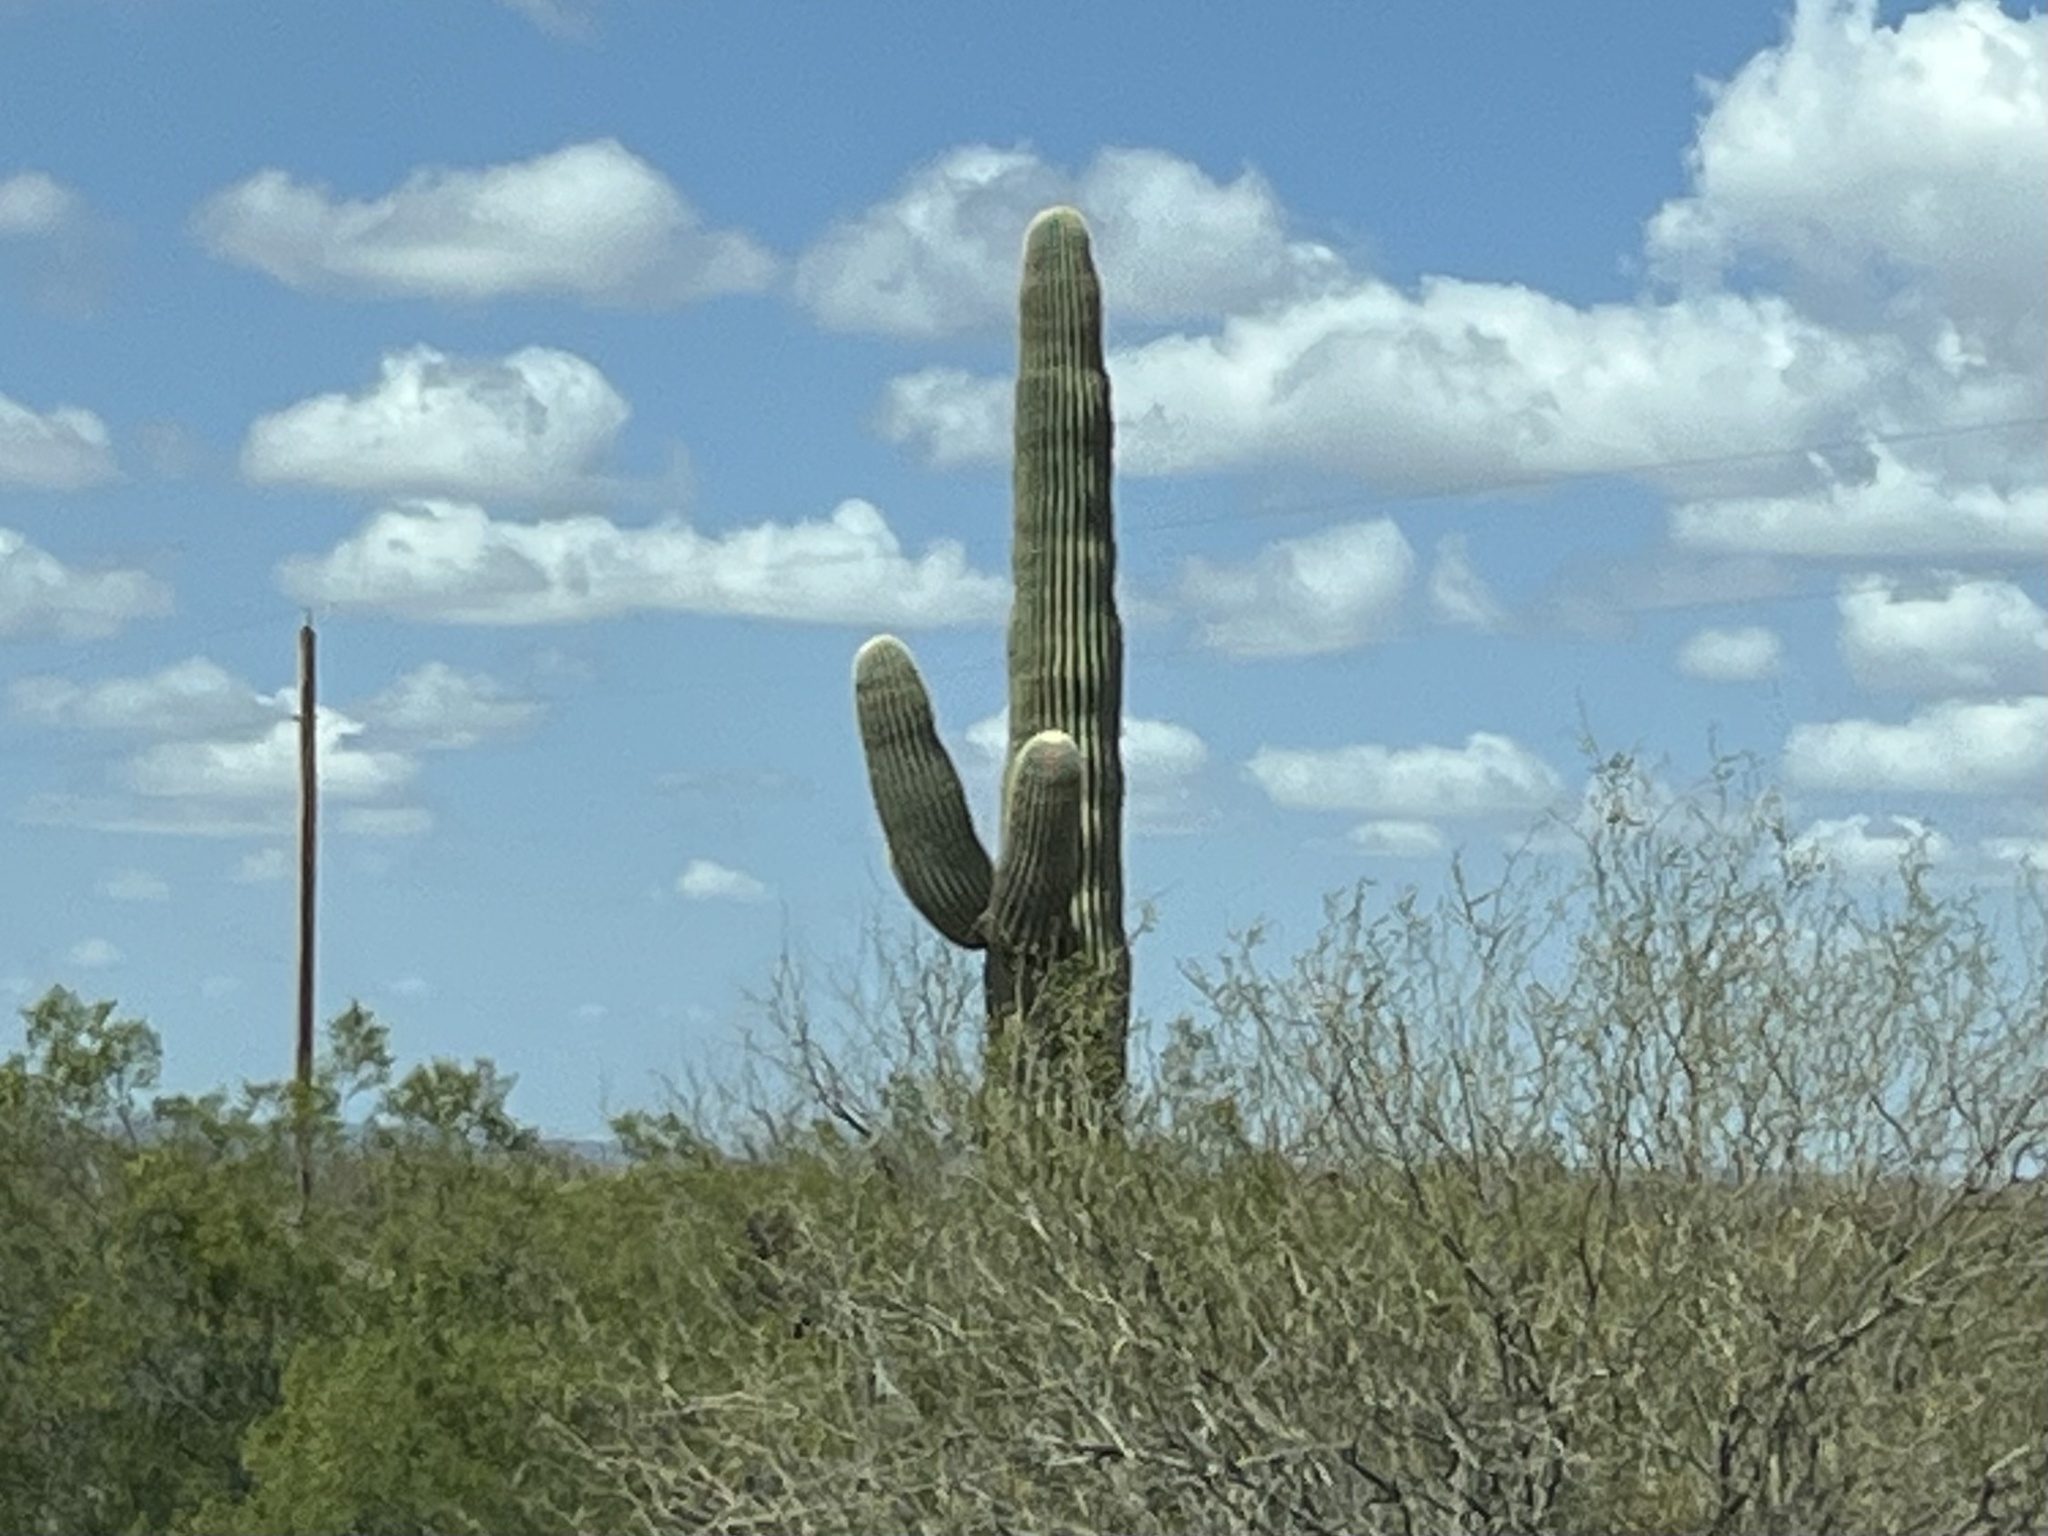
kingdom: Plantae
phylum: Tracheophyta
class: Magnoliopsida
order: Caryophyllales
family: Cactaceae
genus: Carnegiea
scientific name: Carnegiea gigantea
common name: Saguaro
